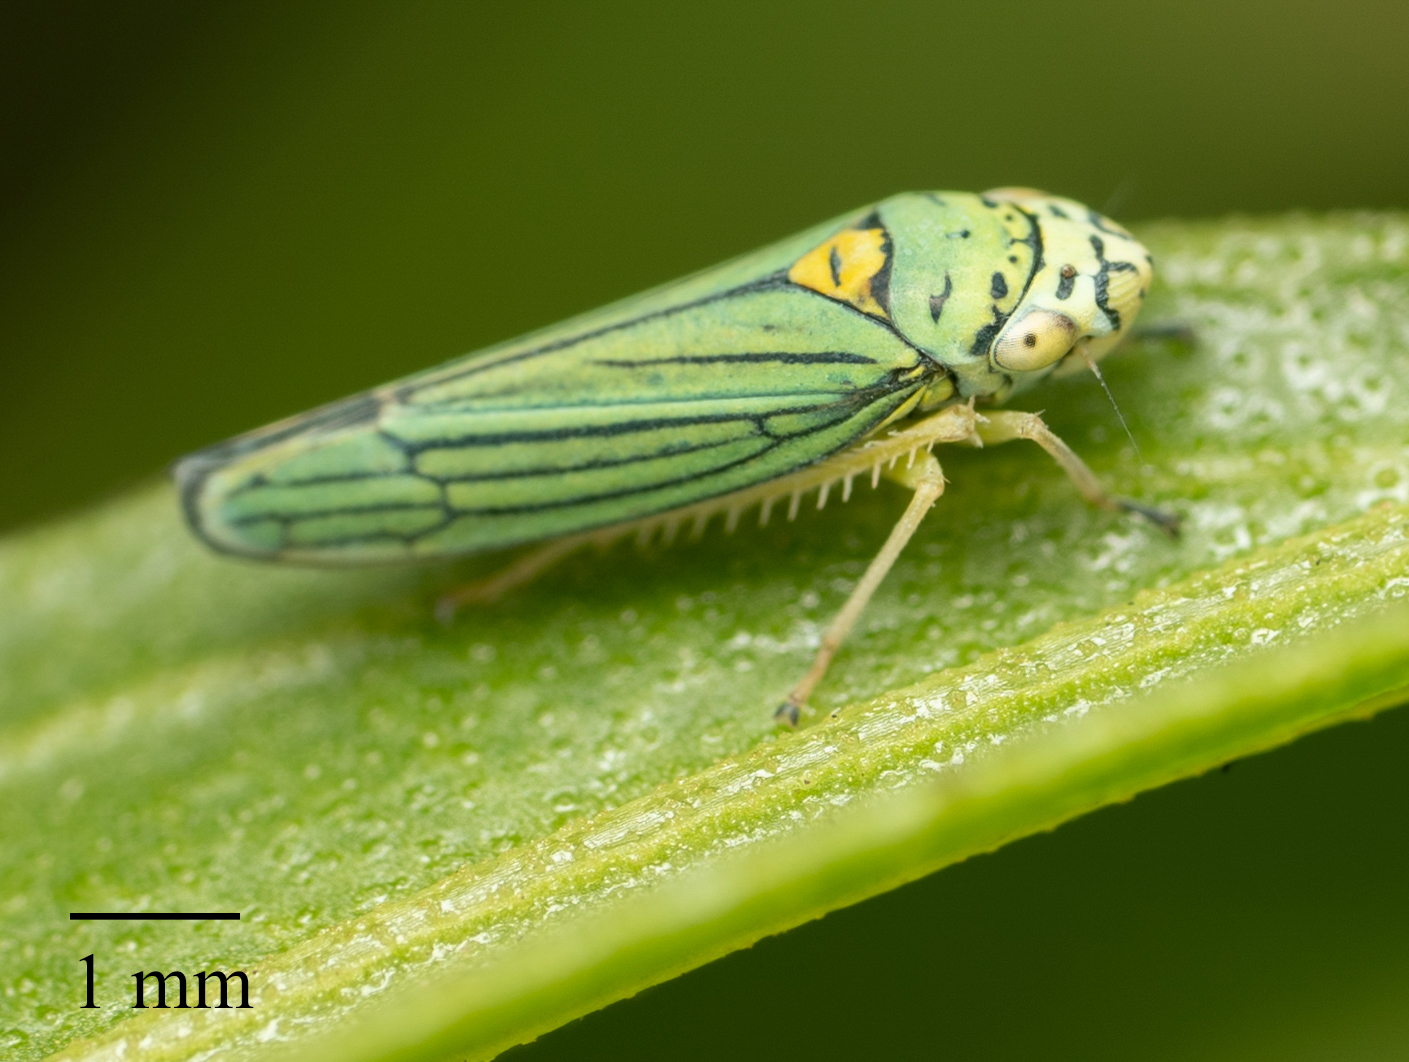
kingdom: Animalia
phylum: Arthropoda
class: Insecta
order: Hemiptera
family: Cicadellidae
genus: Graphocephala
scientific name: Graphocephala atropunctata
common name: Blue-green sharpshooter
